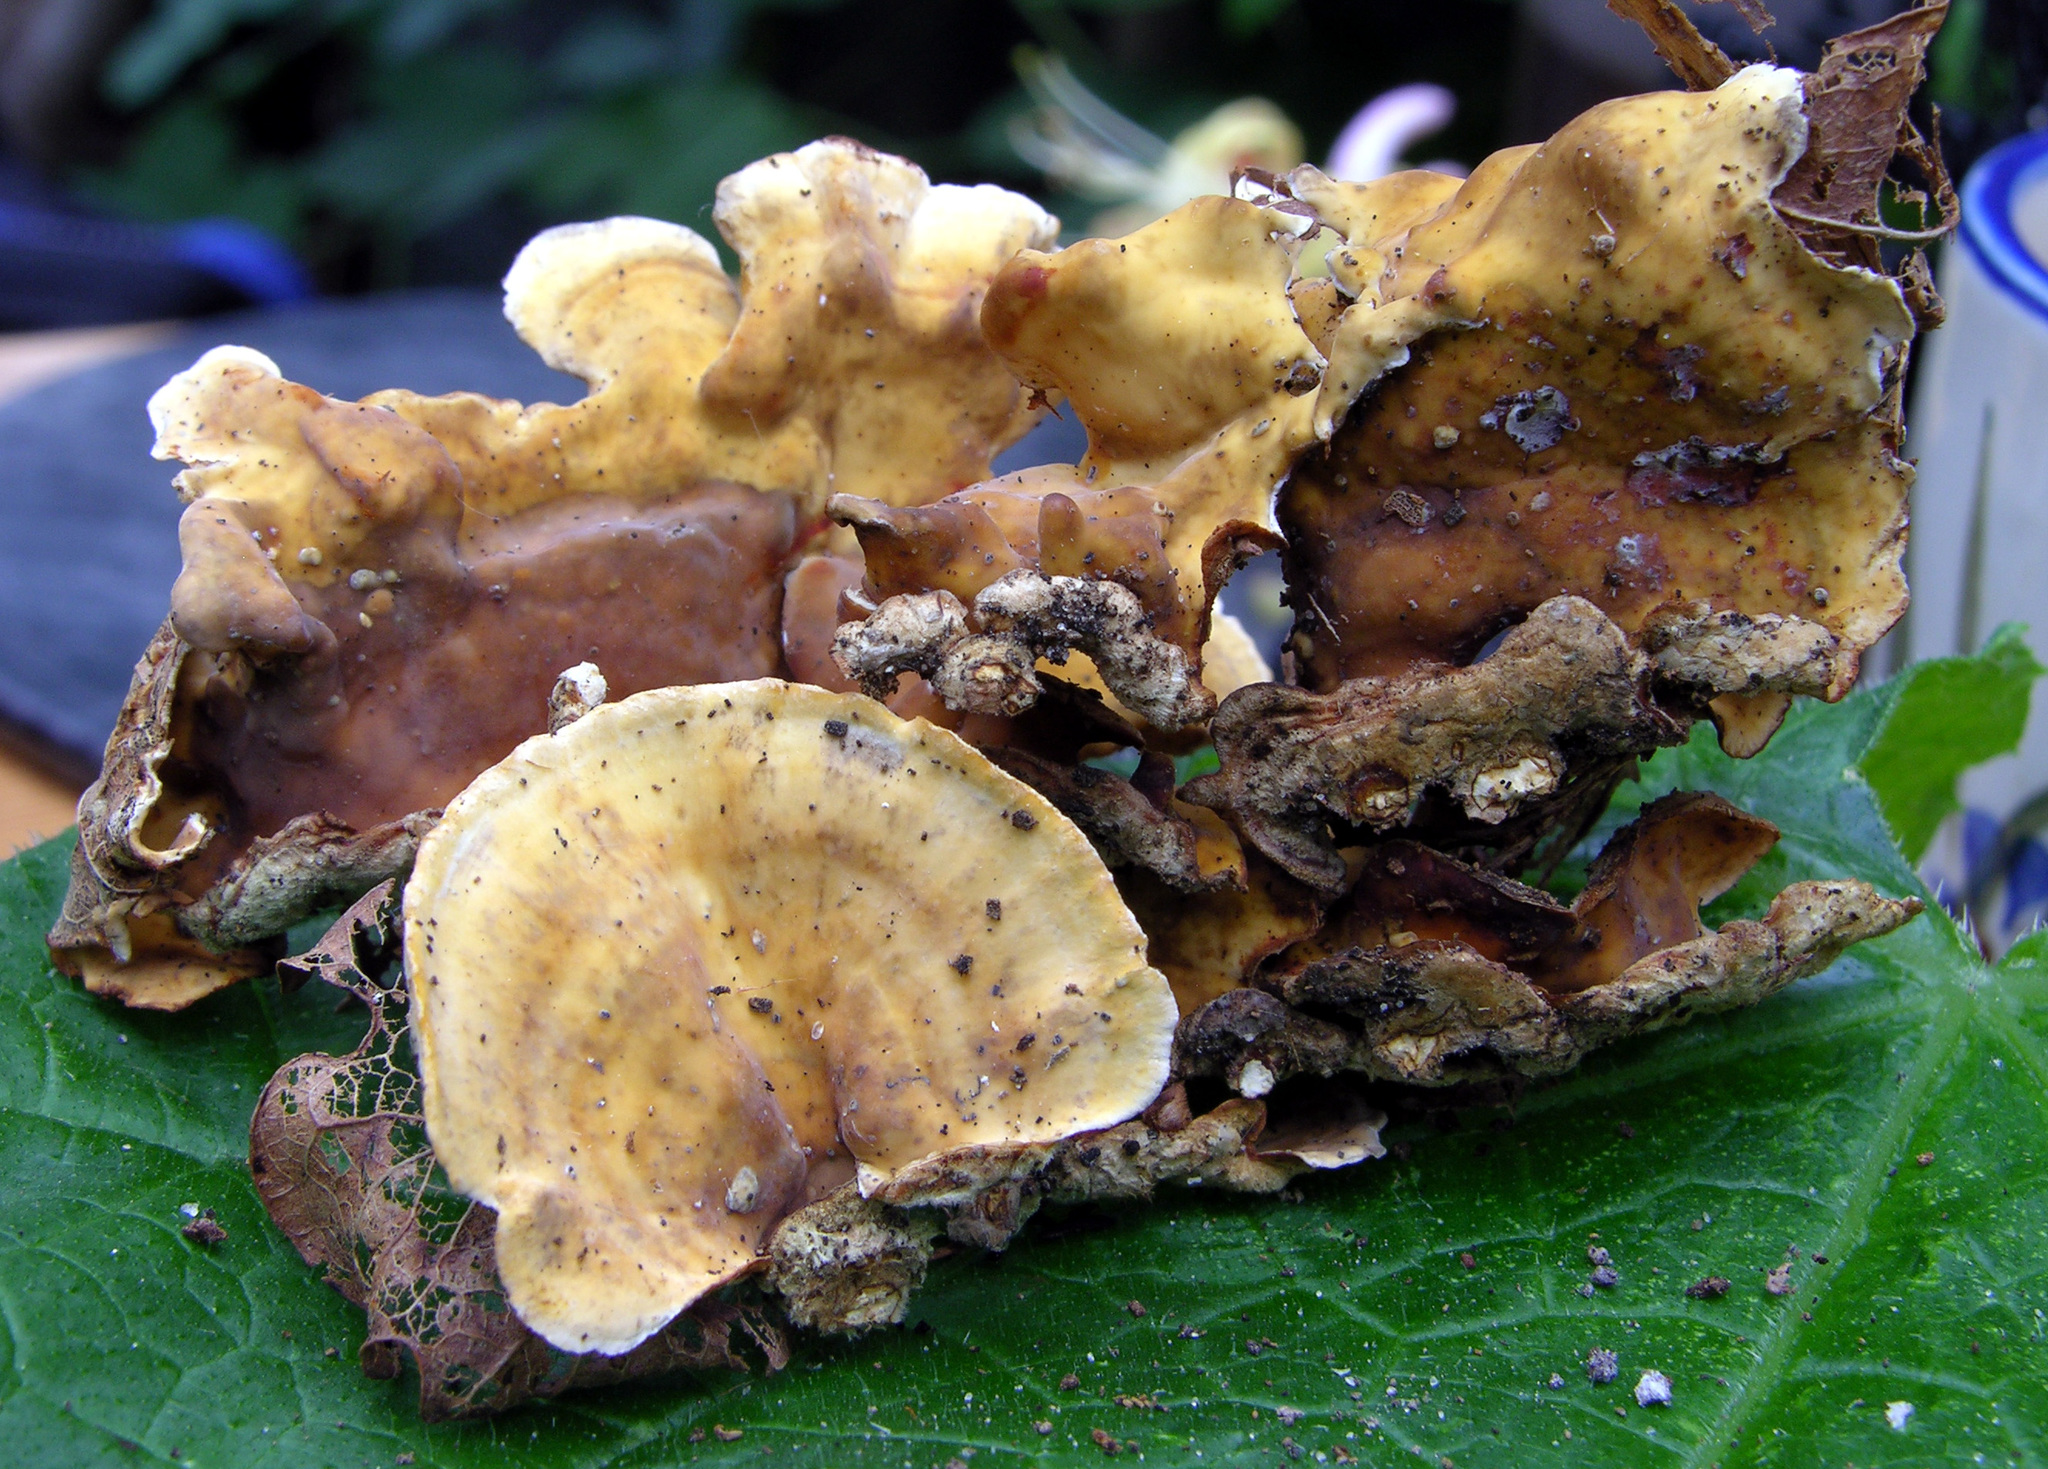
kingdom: Fungi
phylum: Basidiomycota
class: Agaricomycetes
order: Russulales
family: Stereaceae
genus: Stereum
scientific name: Stereum hirsutum
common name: Hairy curtain crust
